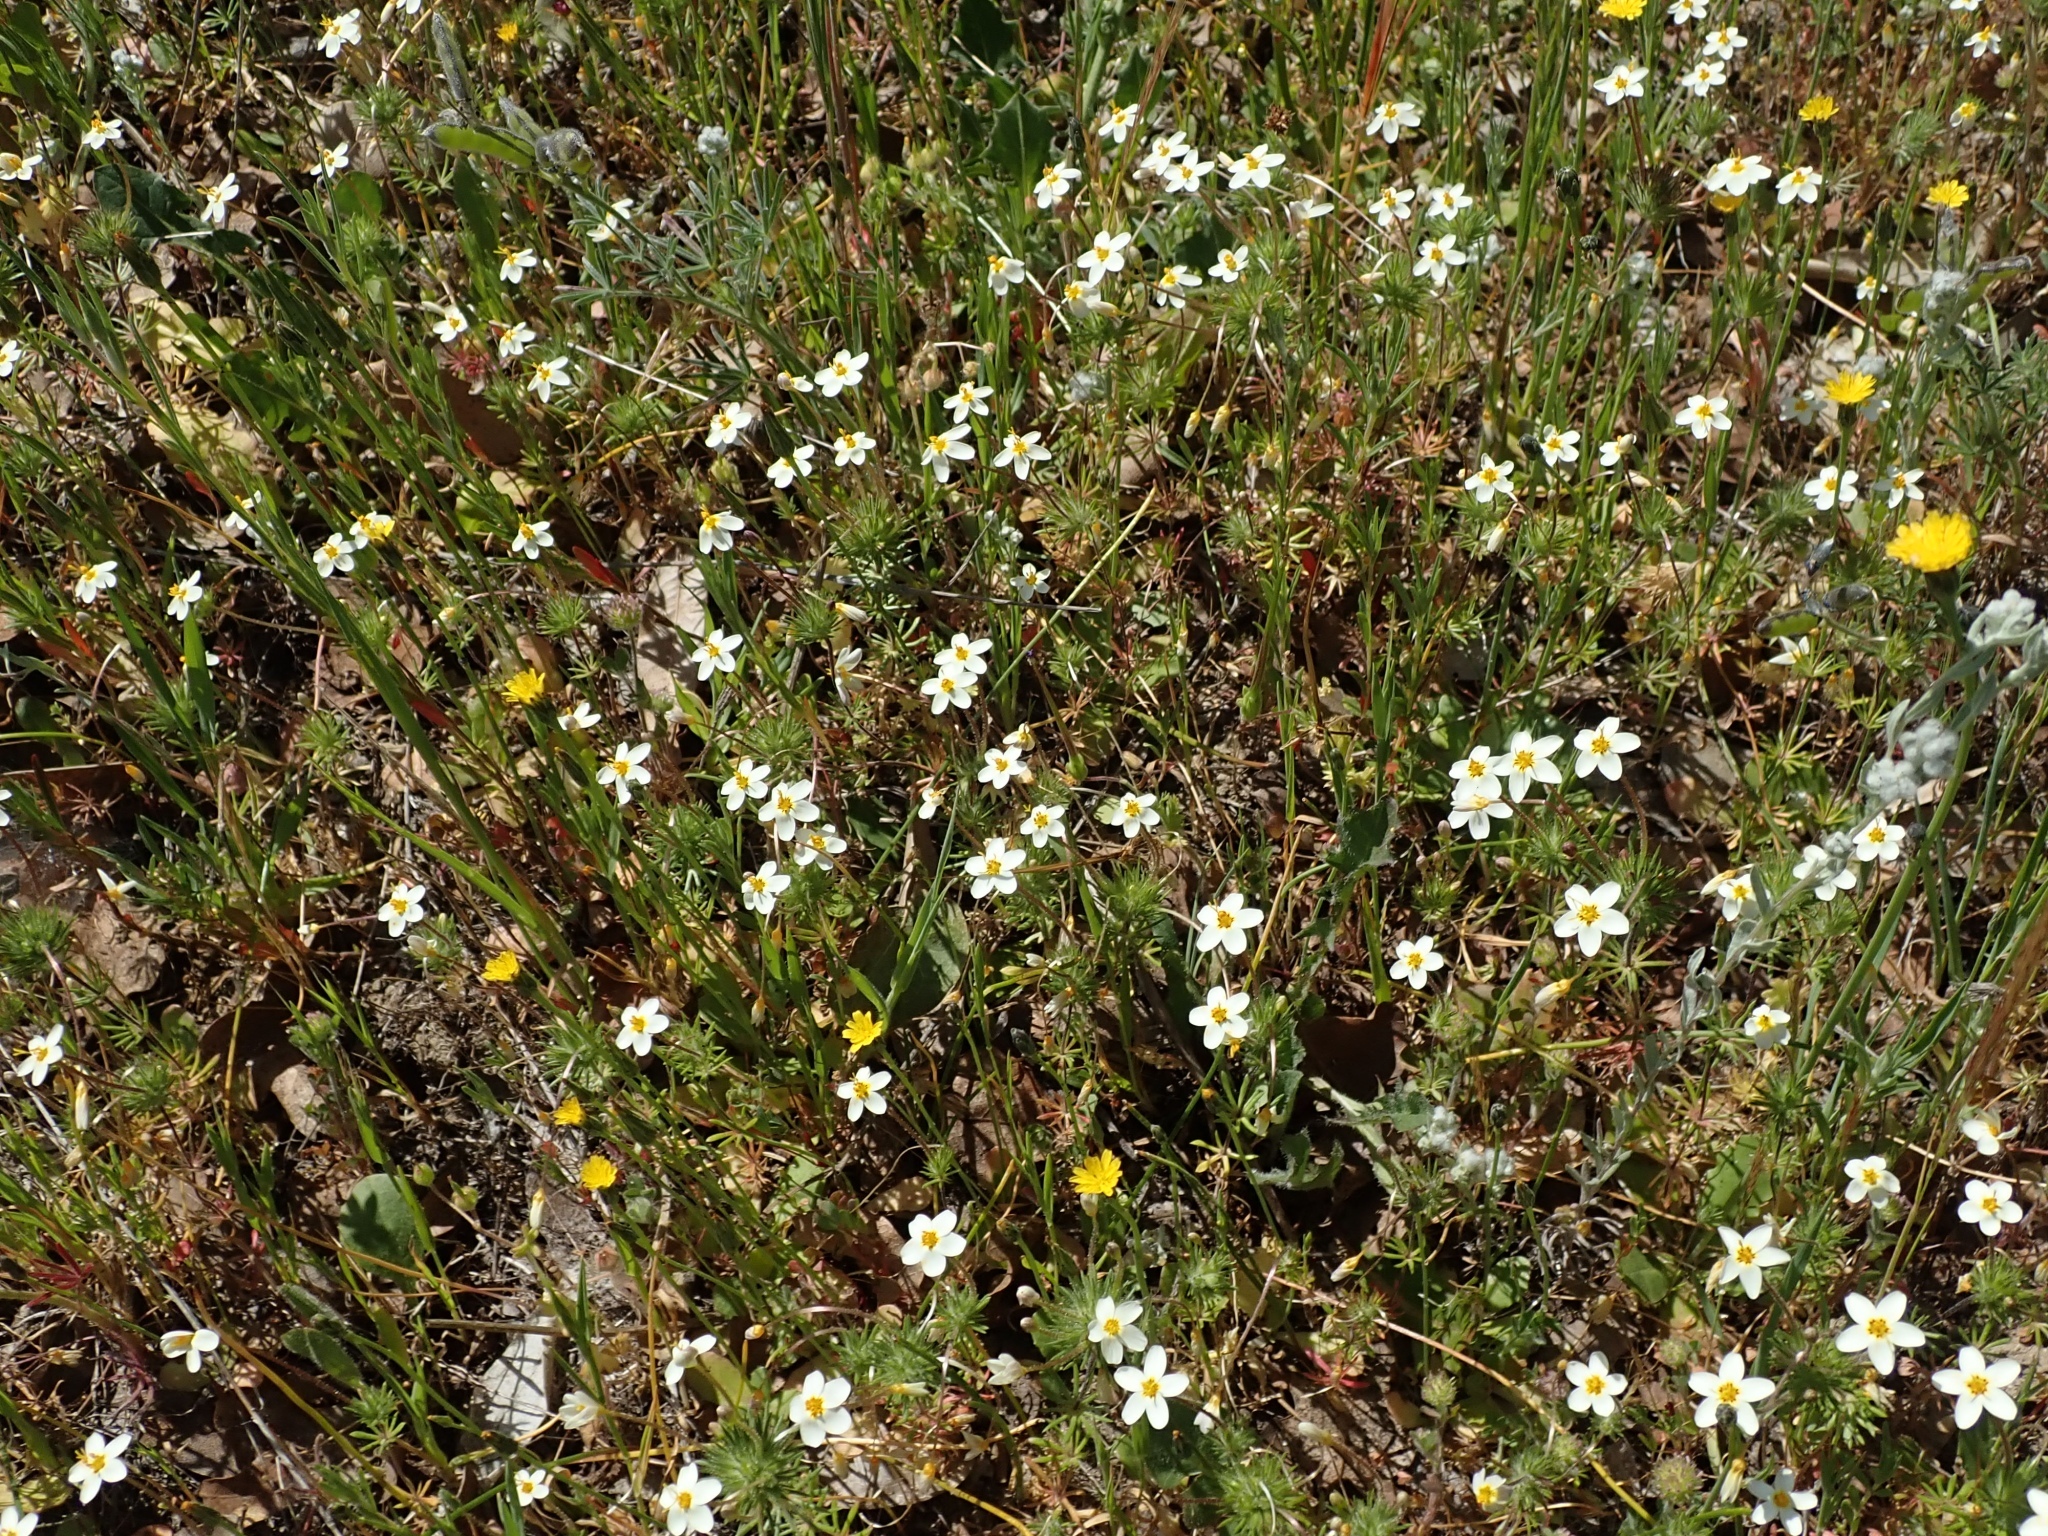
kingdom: Plantae
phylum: Tracheophyta
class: Magnoliopsida
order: Ericales
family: Polemoniaceae
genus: Leptosiphon
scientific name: Leptosiphon parviflorus
